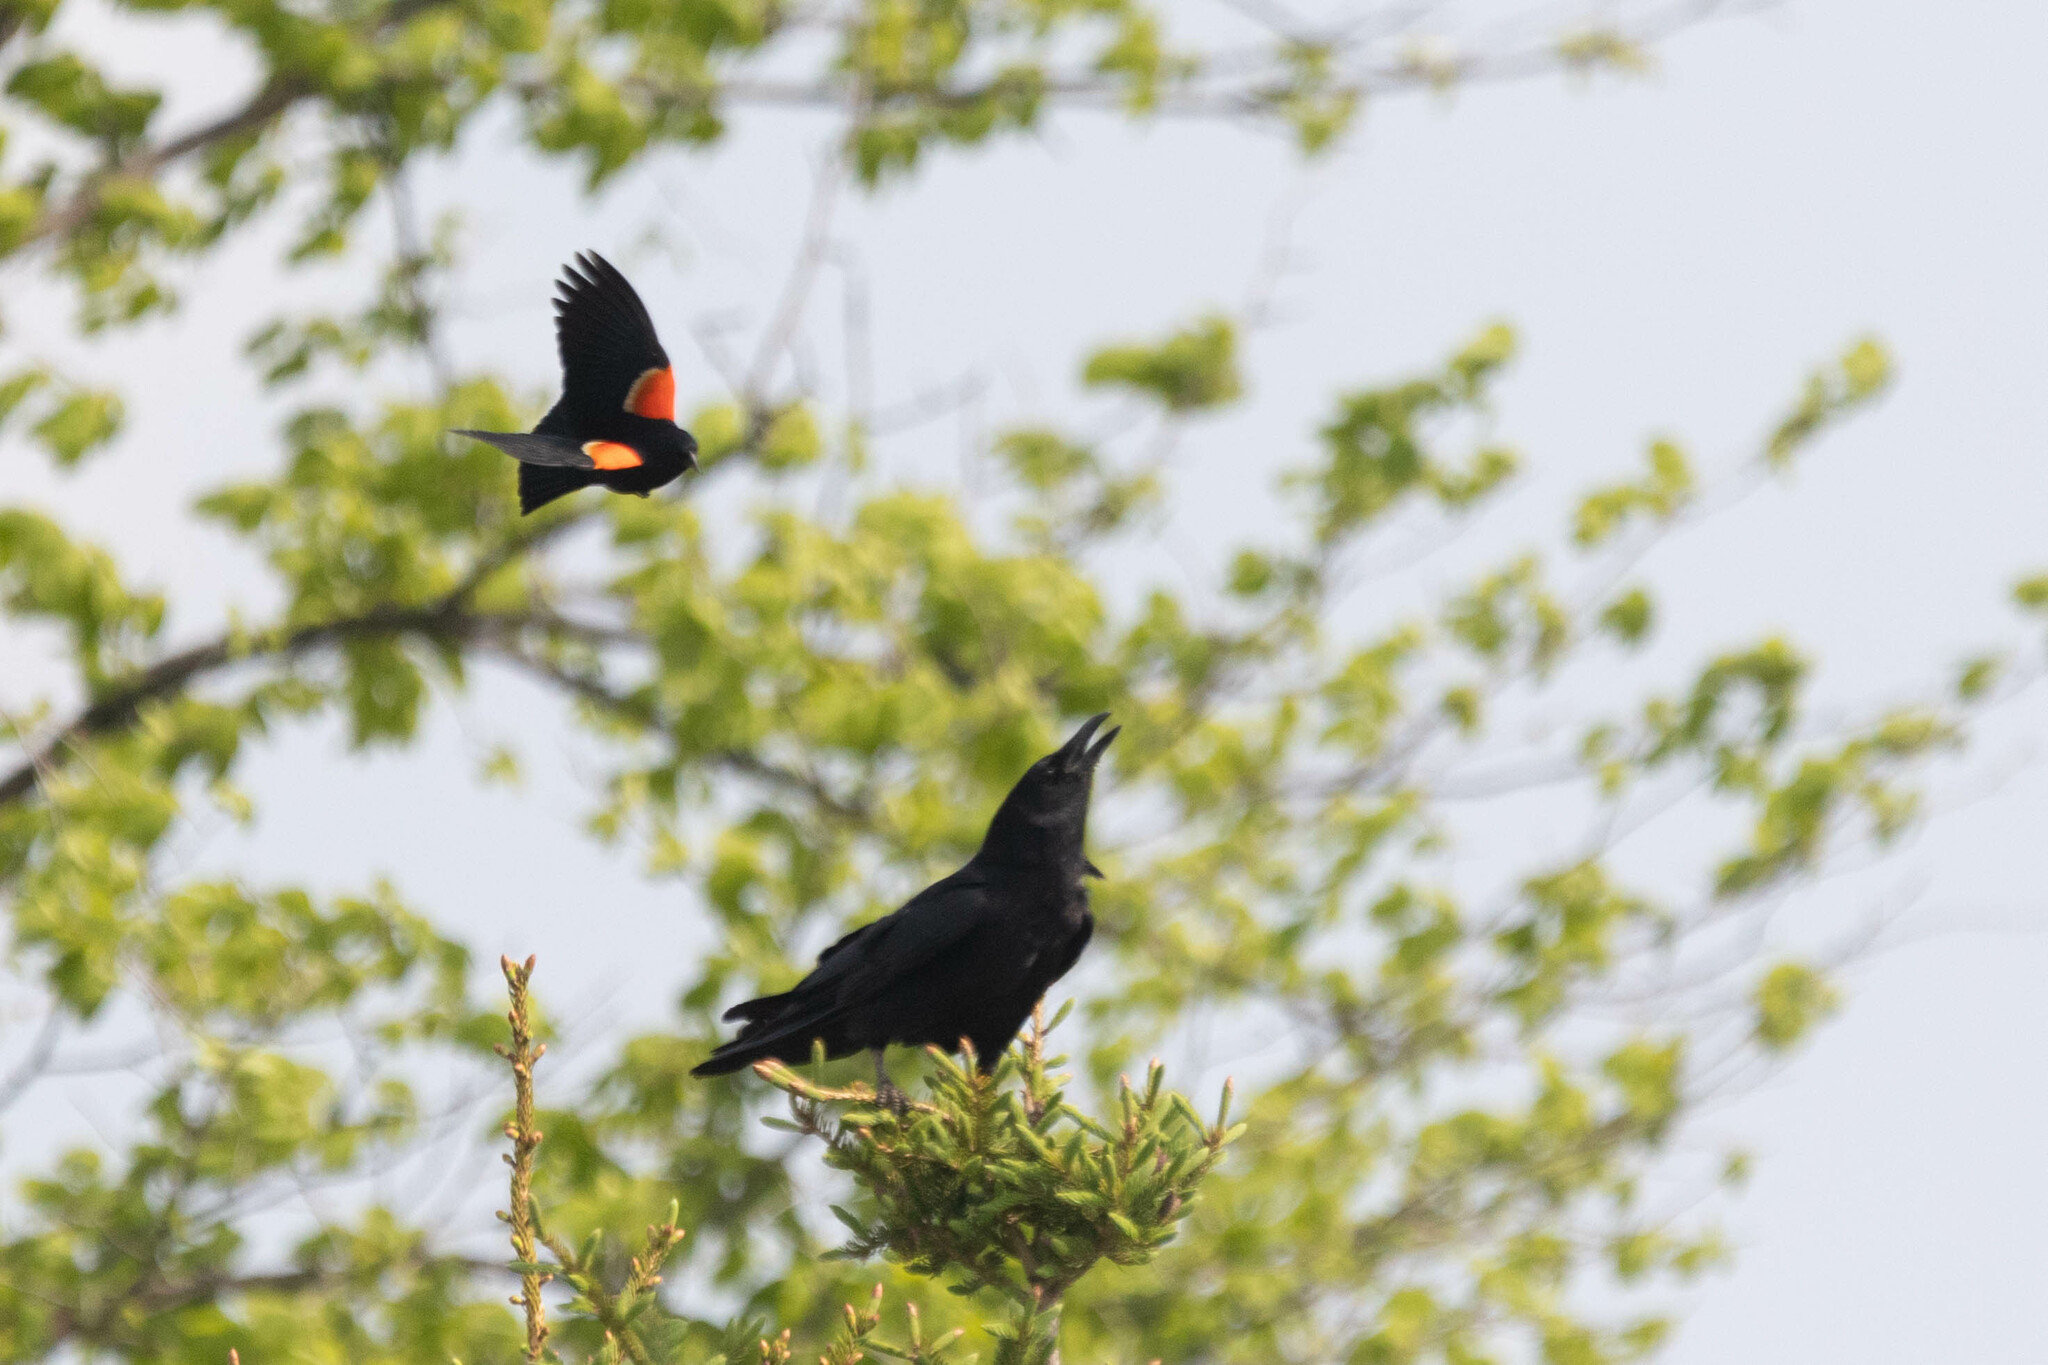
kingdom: Animalia
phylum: Chordata
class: Aves
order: Passeriformes
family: Icteridae
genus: Agelaius
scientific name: Agelaius phoeniceus
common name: Red-winged blackbird
